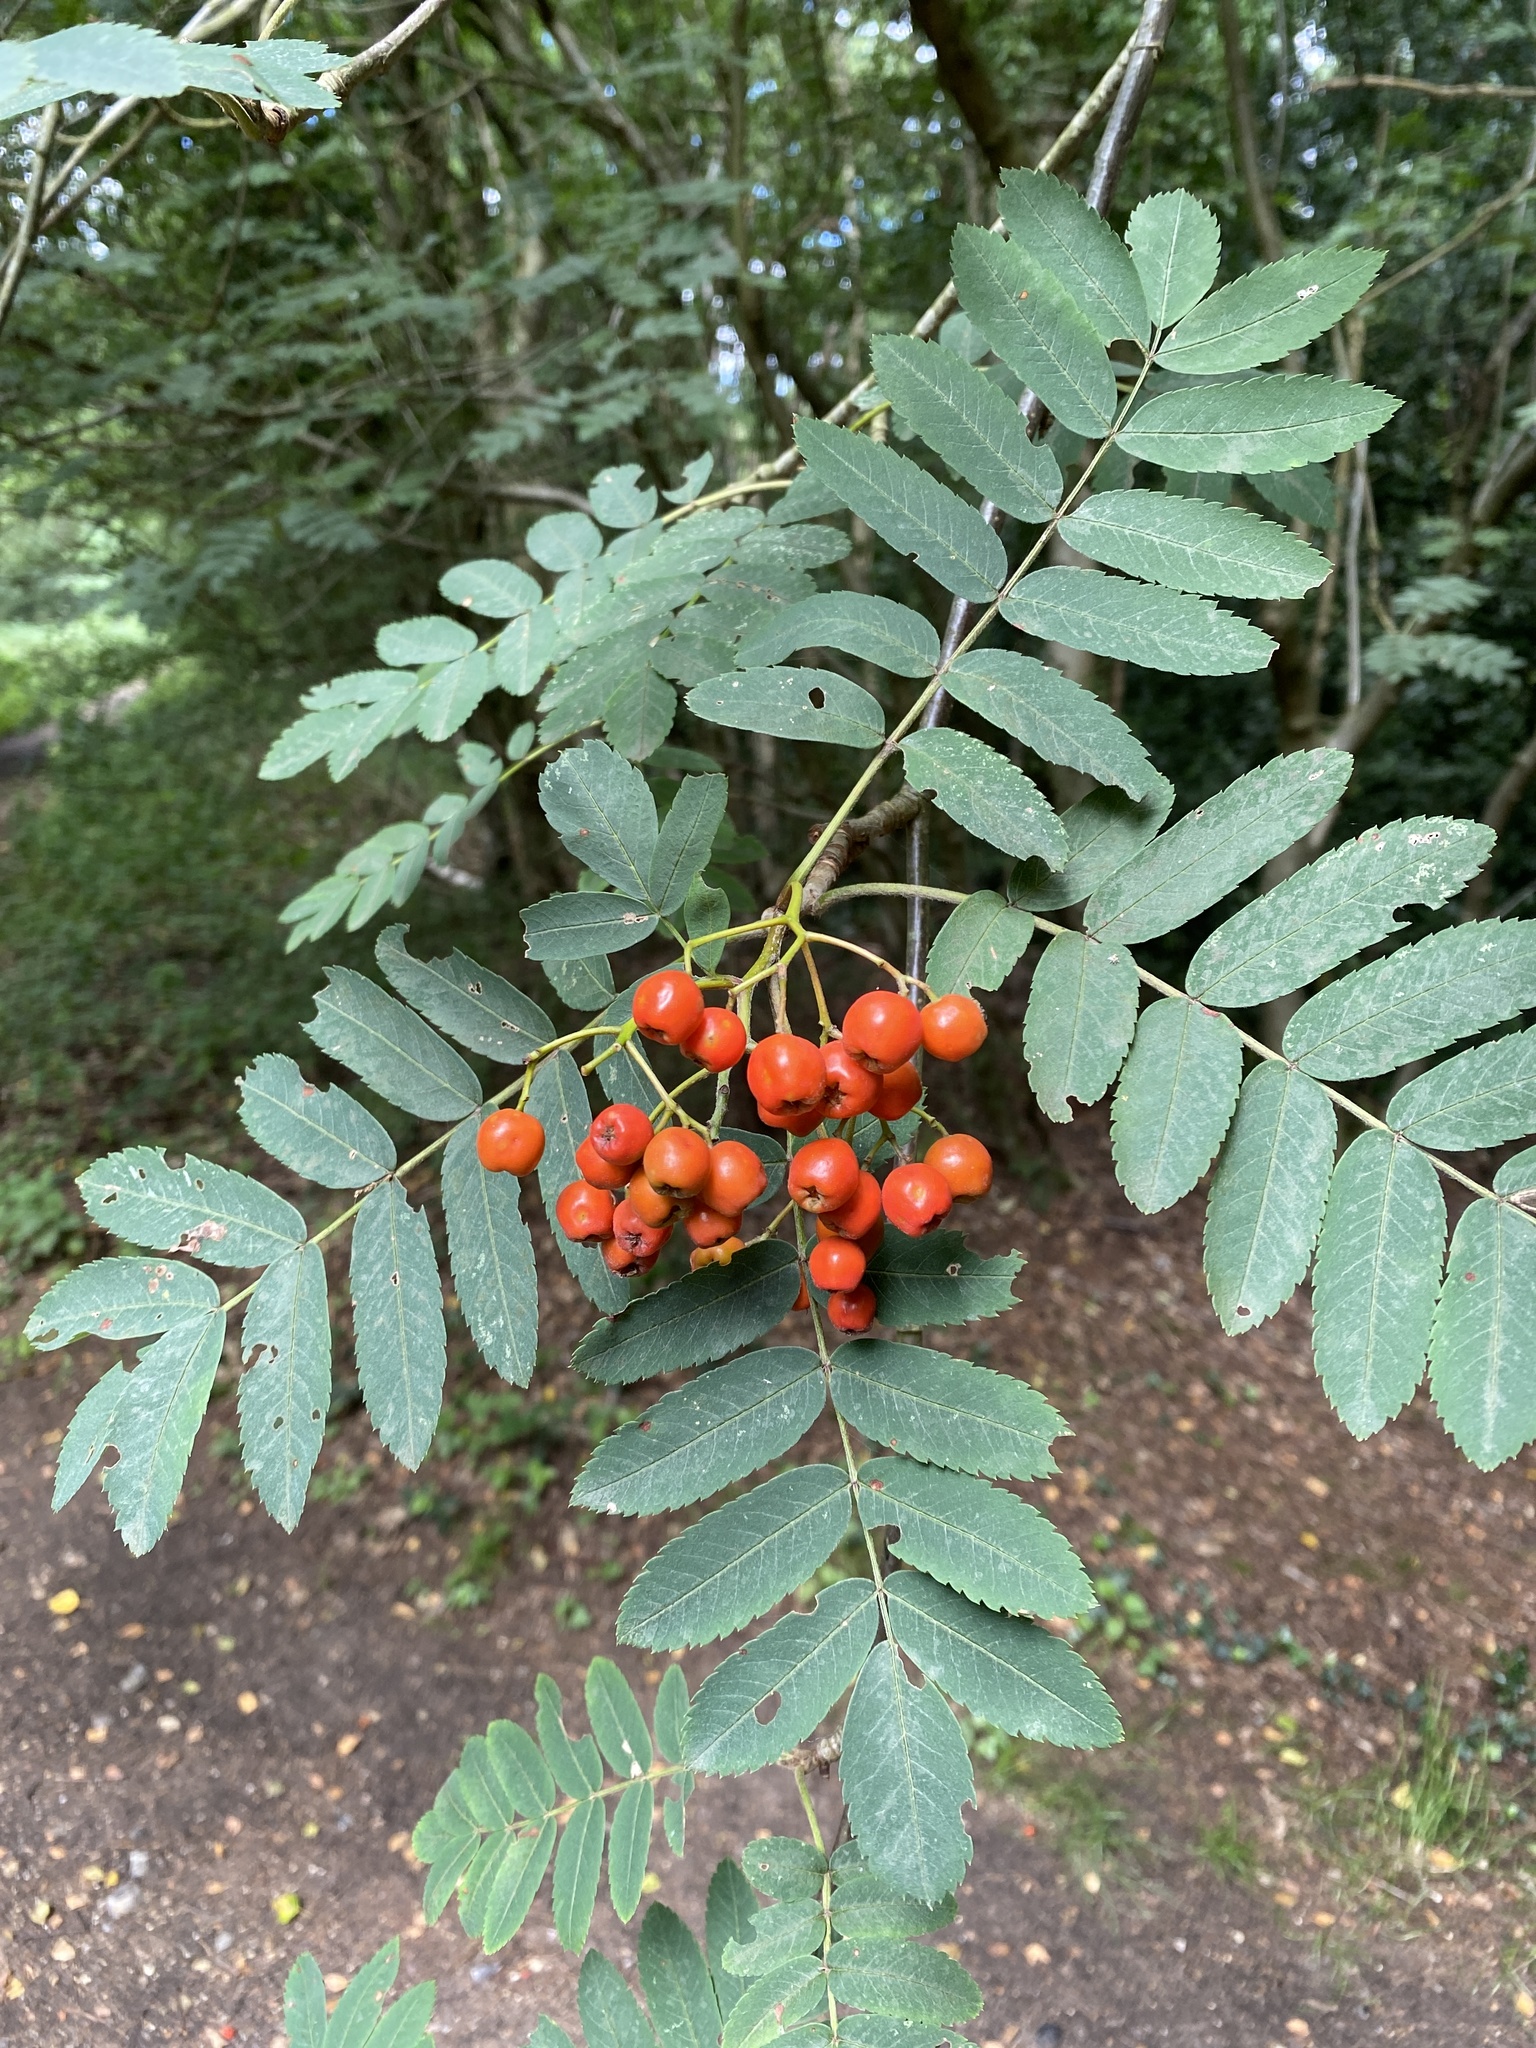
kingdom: Plantae
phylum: Tracheophyta
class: Magnoliopsida
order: Rosales
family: Rosaceae
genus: Sorbus
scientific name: Sorbus aucuparia
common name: Rowan
